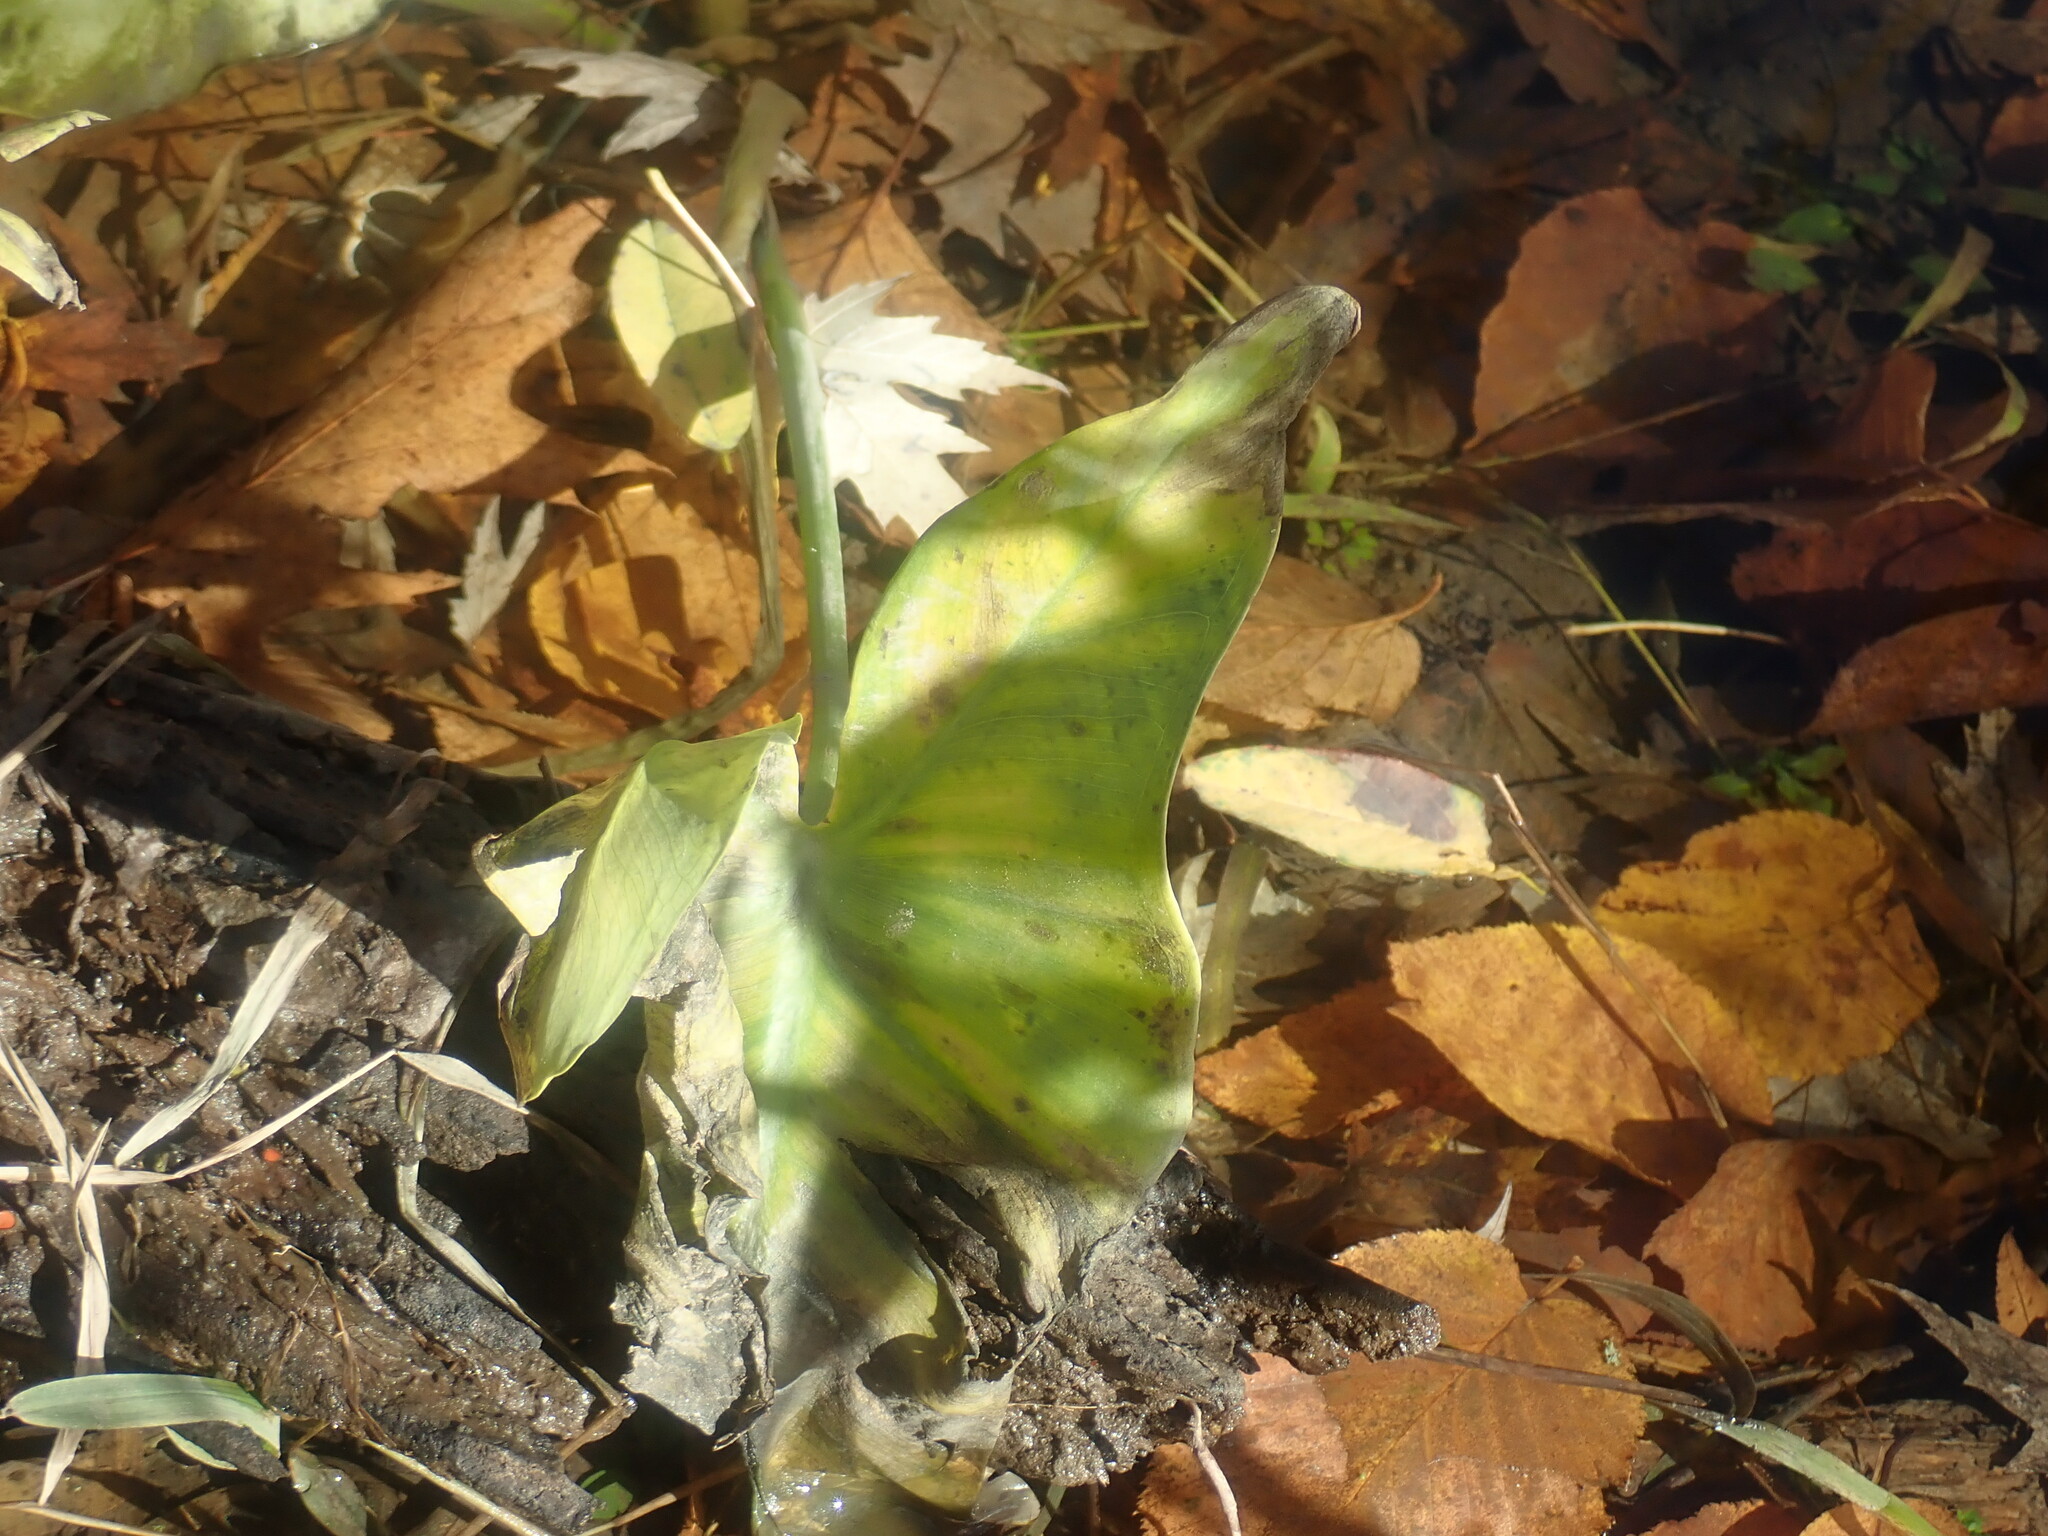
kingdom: Plantae
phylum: Tracheophyta
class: Liliopsida
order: Alismatales
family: Araceae
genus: Peltandra
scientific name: Peltandra virginica
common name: Arrow arum
